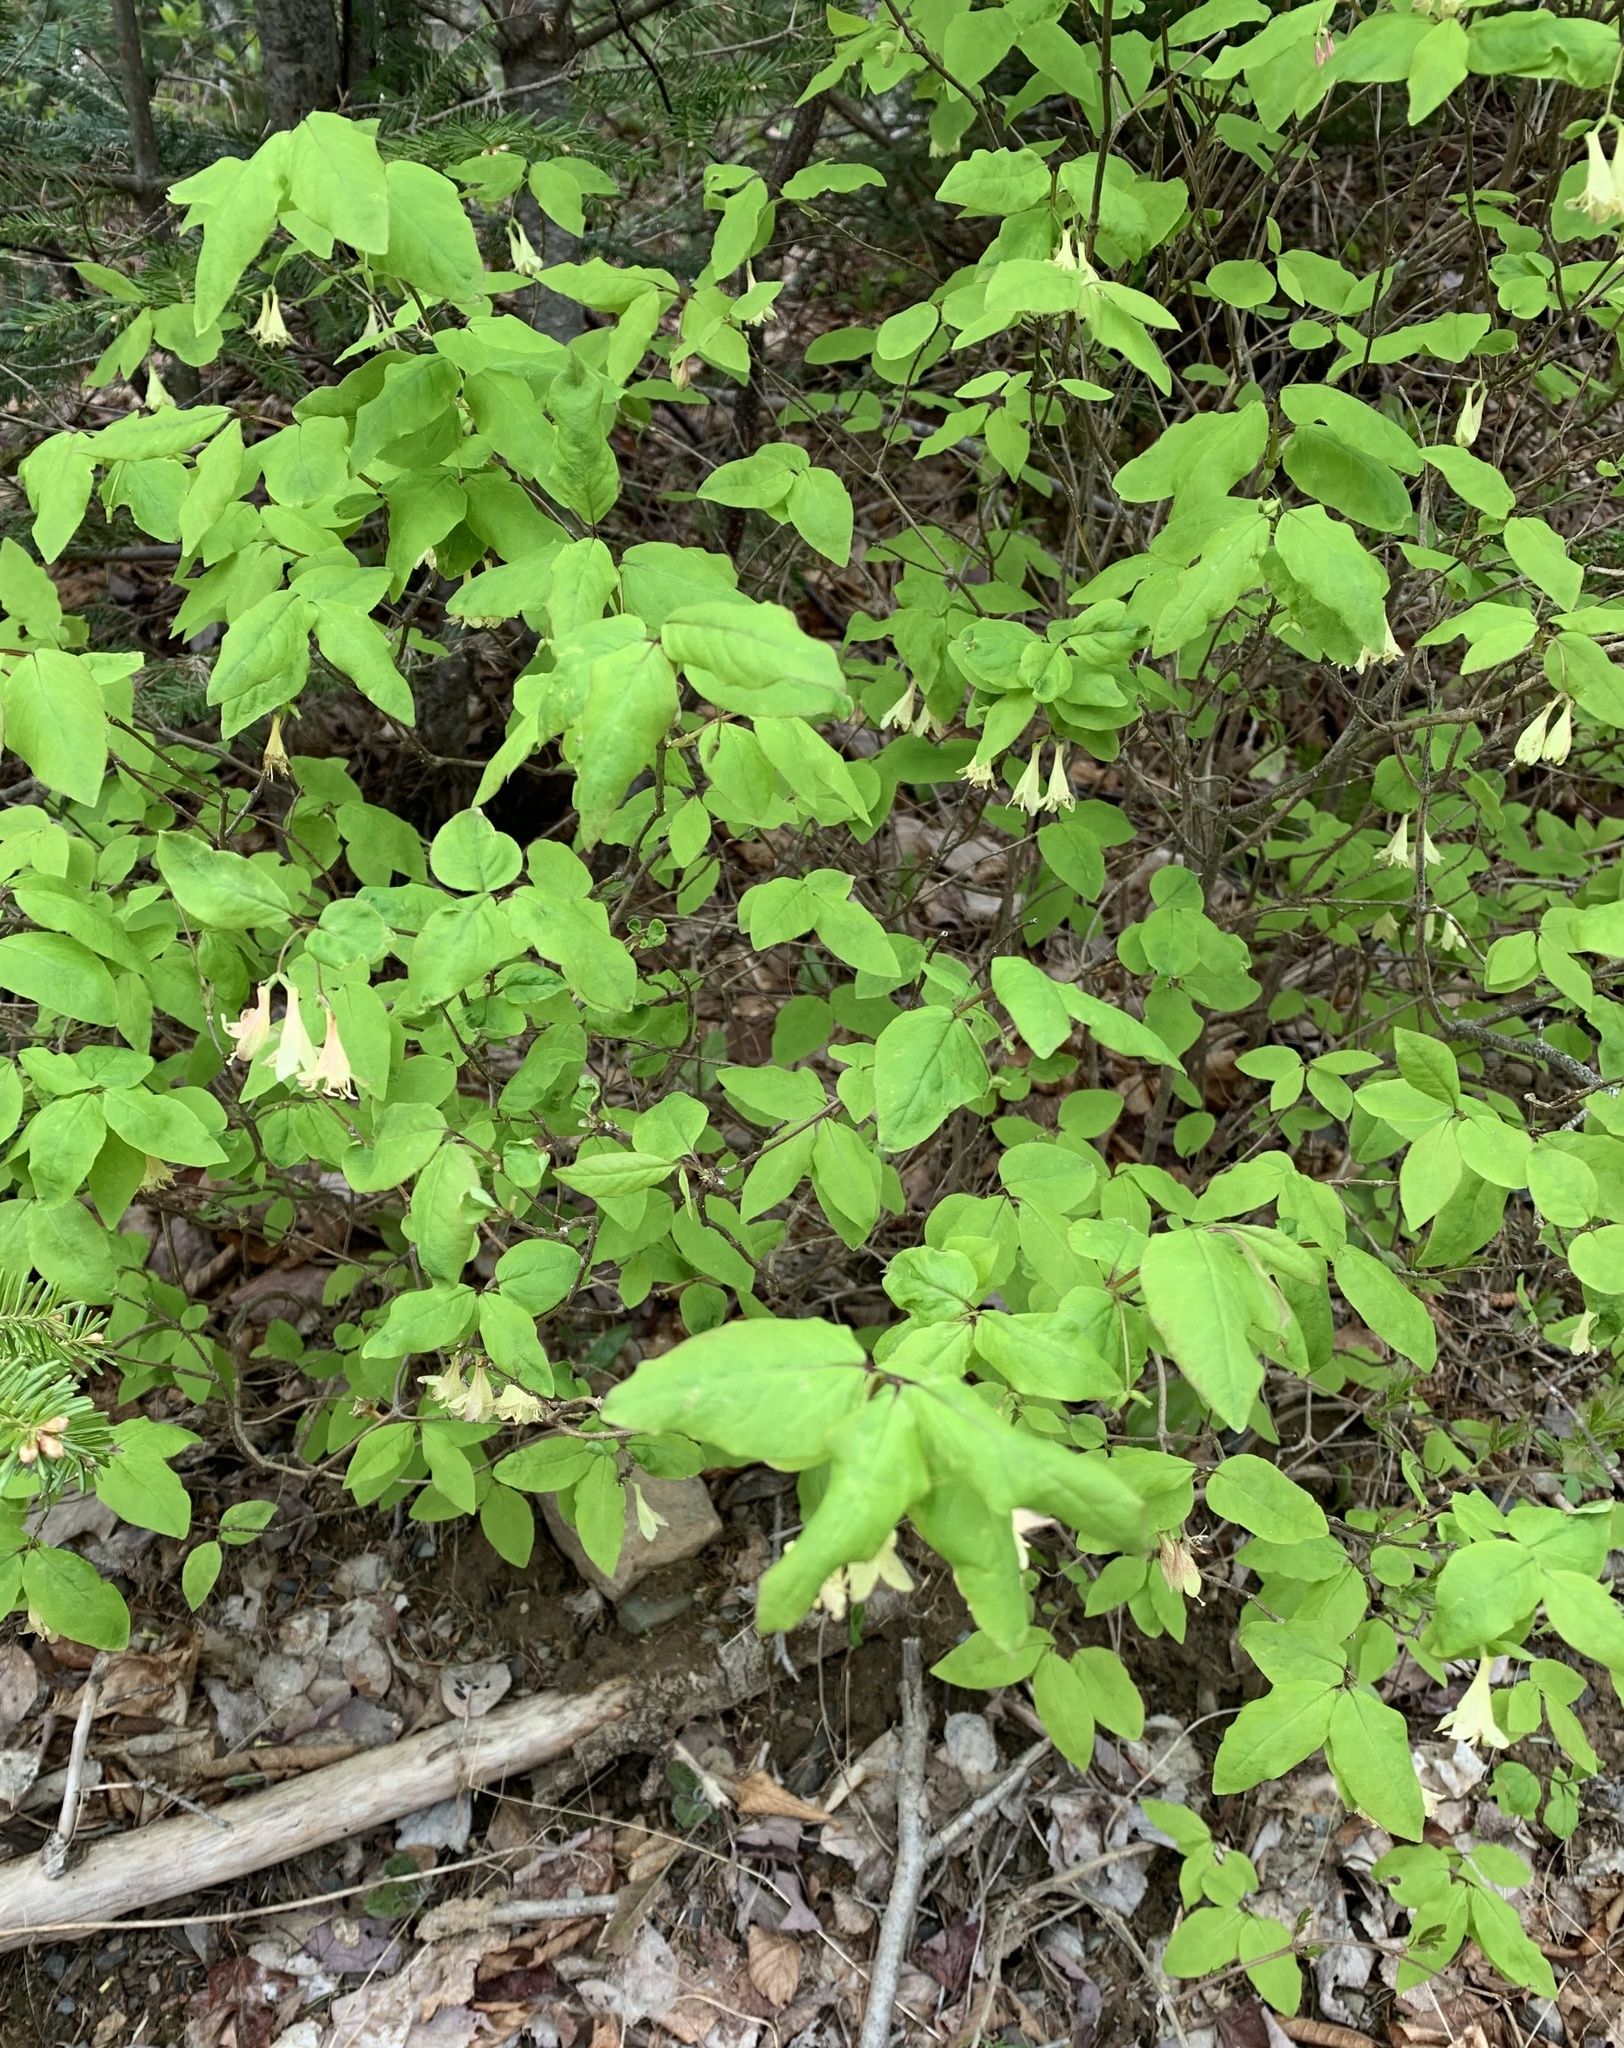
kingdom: Plantae
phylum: Tracheophyta
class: Magnoliopsida
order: Dipsacales
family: Caprifoliaceae
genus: Lonicera
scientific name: Lonicera canadensis
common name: American fly-honeysuckle
